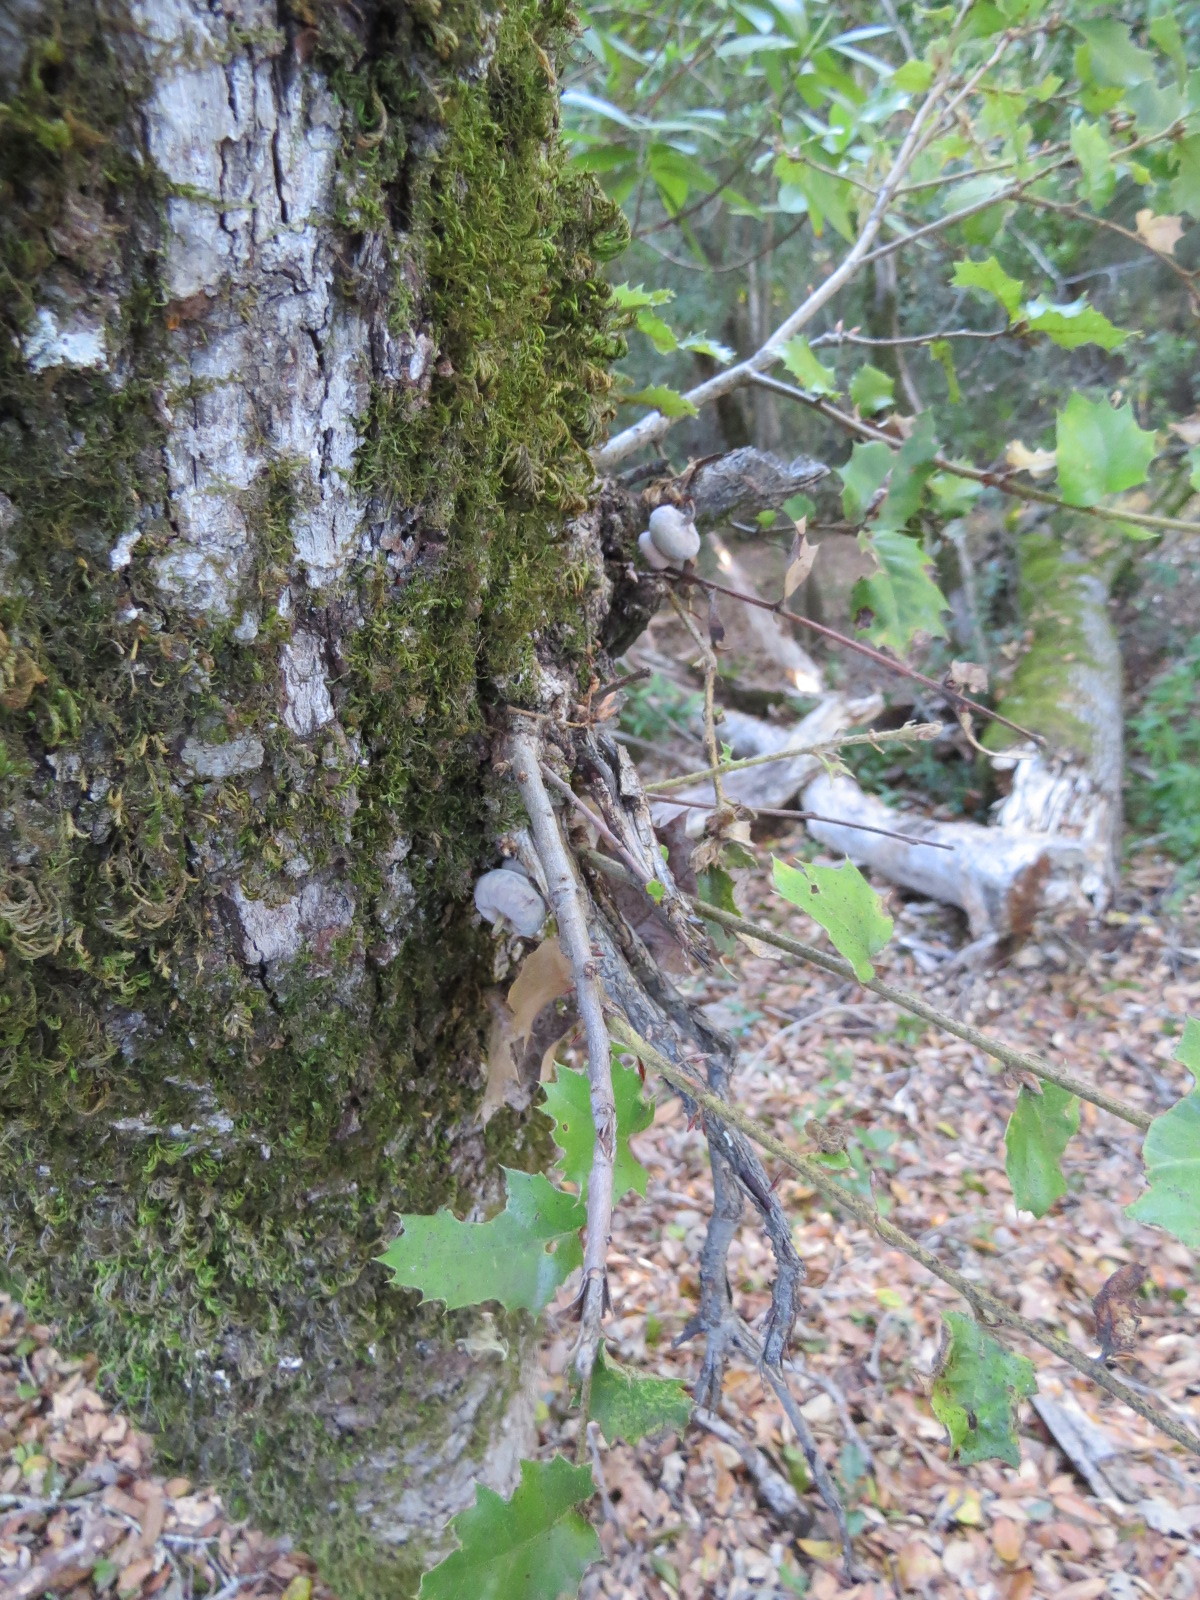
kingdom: Animalia
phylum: Arthropoda
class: Insecta
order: Hymenoptera
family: Cynipidae
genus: Heteroecus
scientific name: Heteroecus
